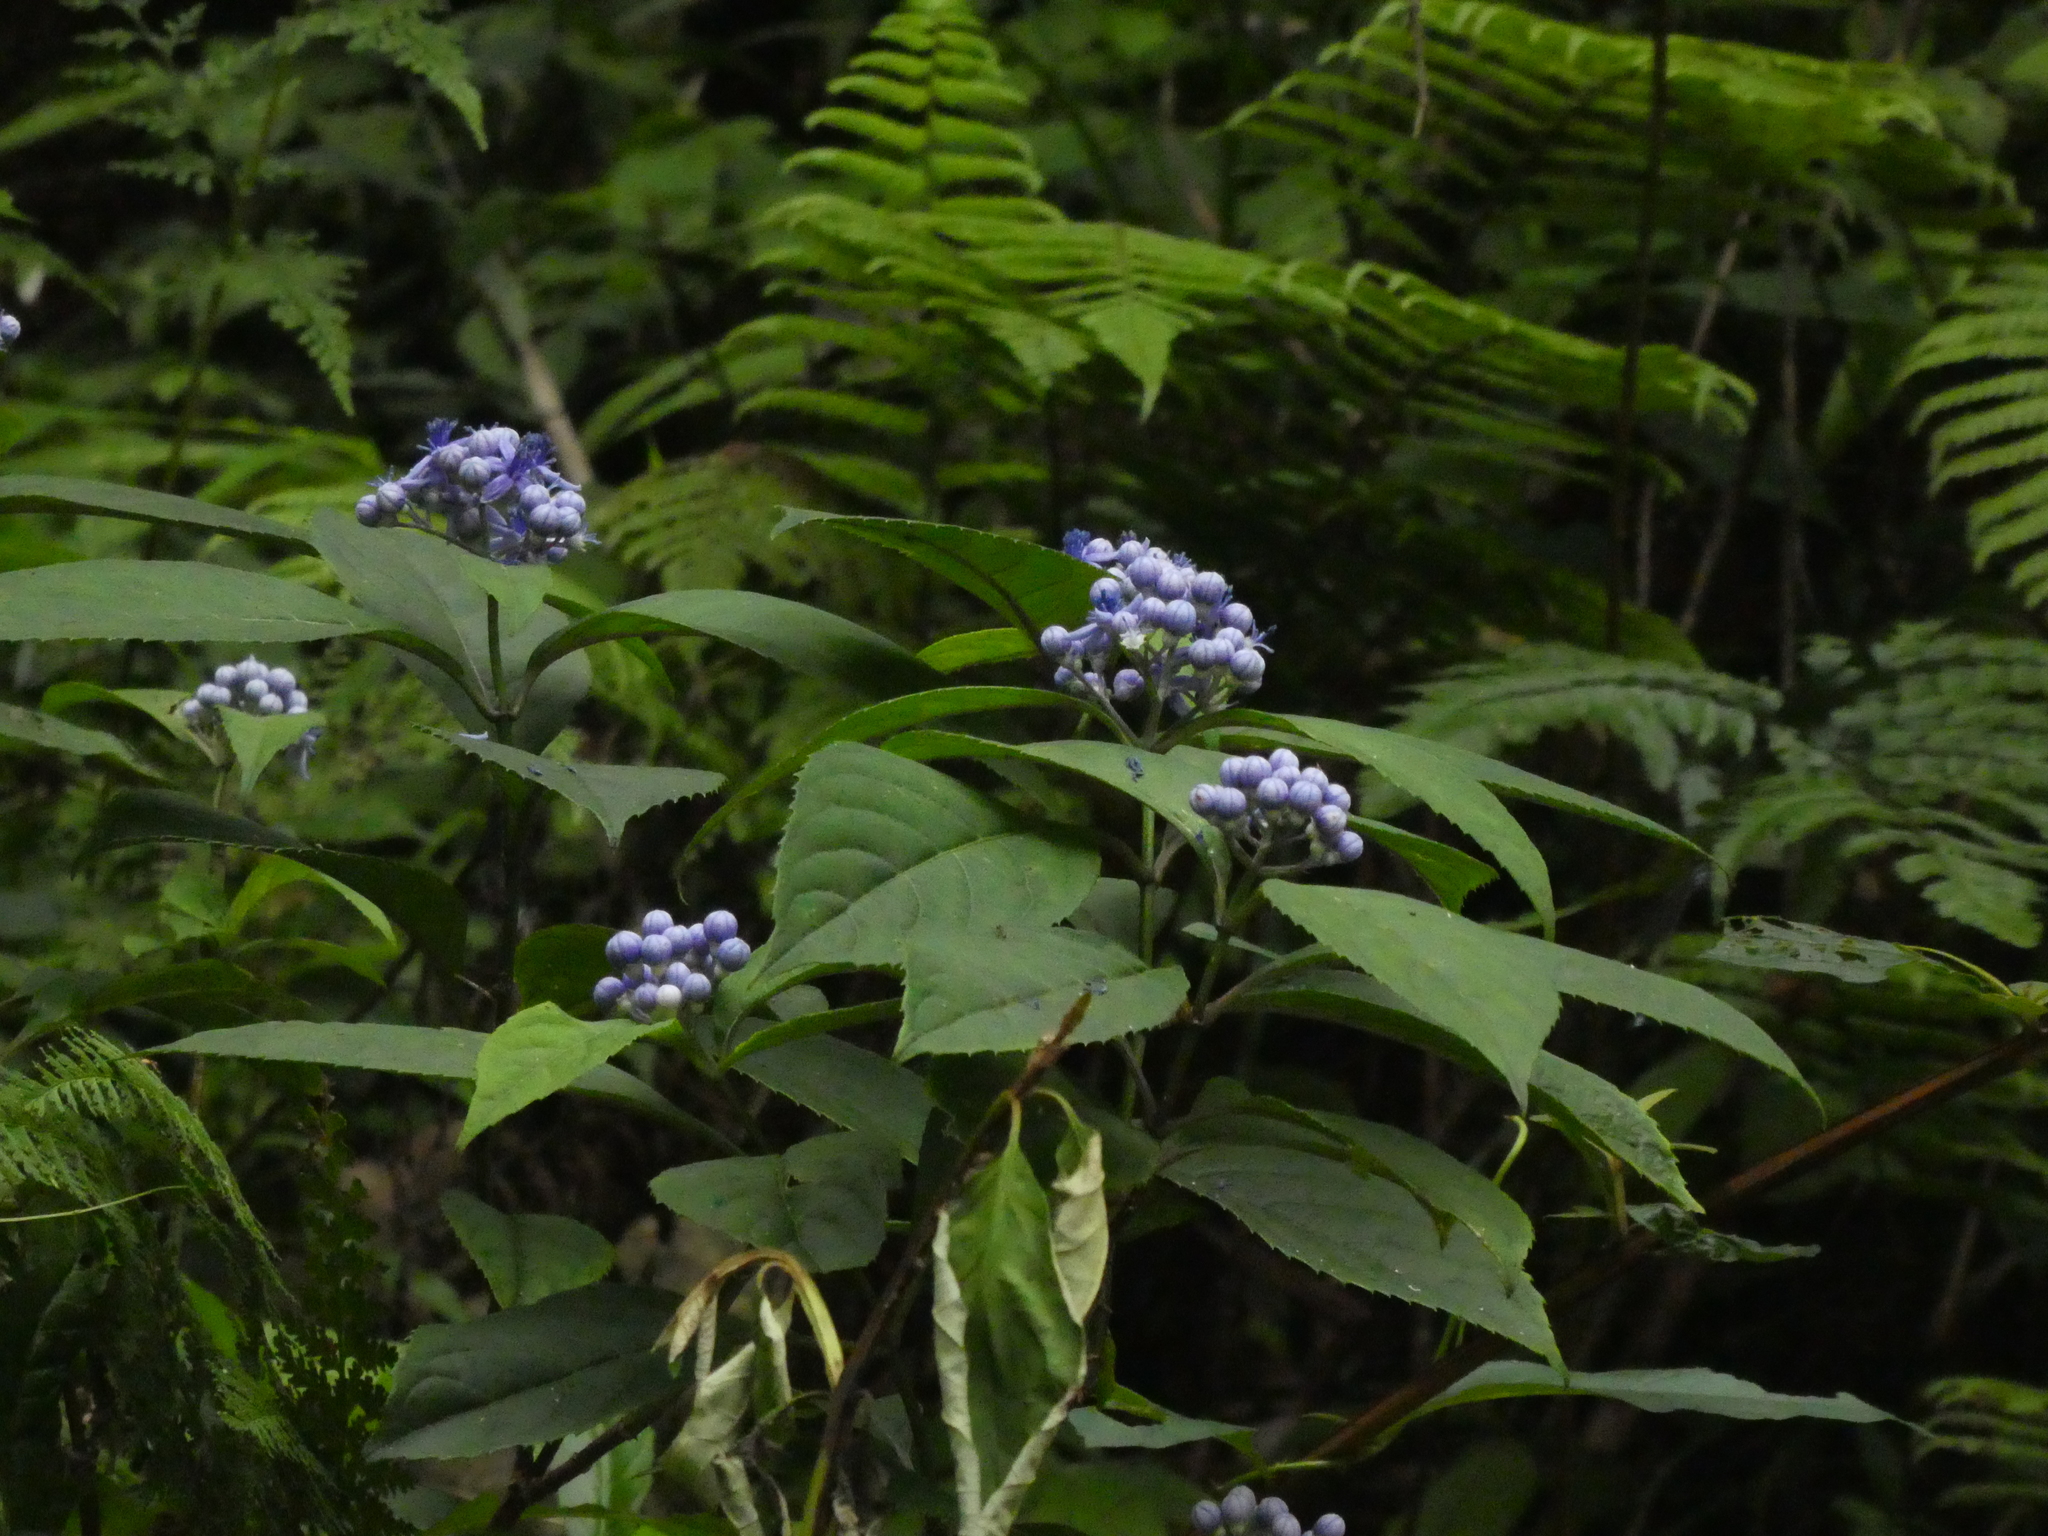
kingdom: Plantae
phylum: Tracheophyta
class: Magnoliopsida
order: Cornales
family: Hydrangeaceae
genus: Hydrangea
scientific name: Hydrangea febrifuga
